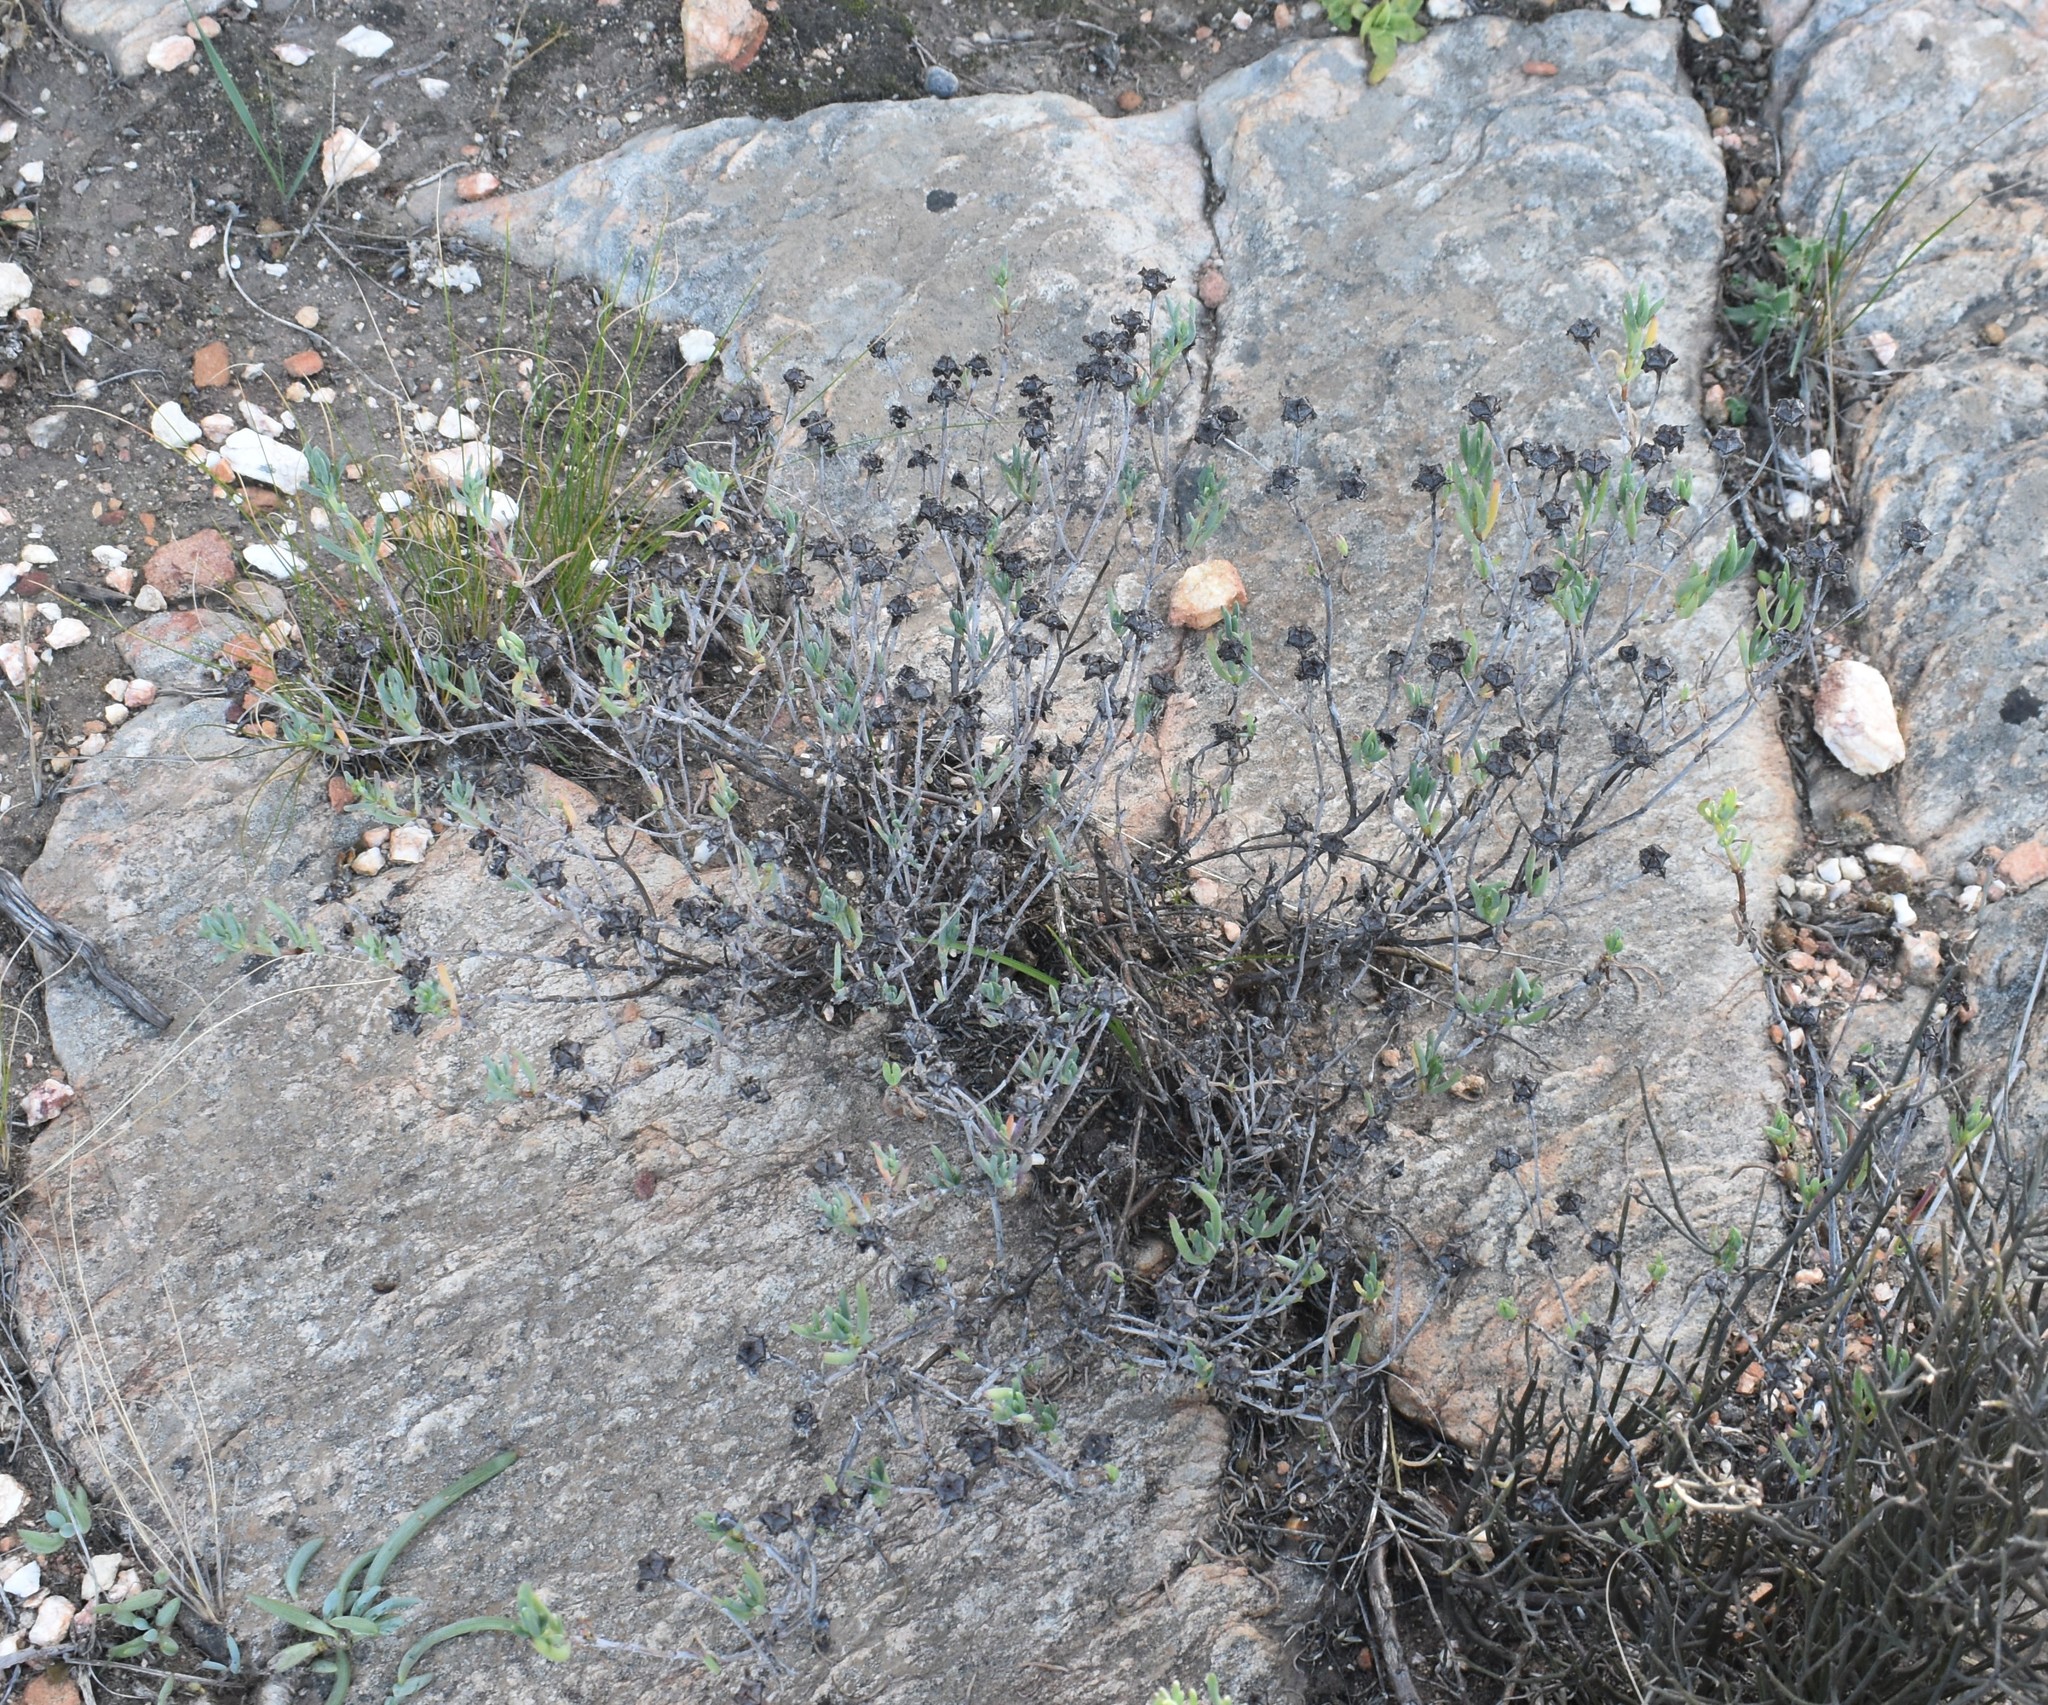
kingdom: Plantae
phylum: Tracheophyta
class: Magnoliopsida
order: Caryophyllales
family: Aizoaceae
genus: Lampranthus
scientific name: Lampranthus haworthii
